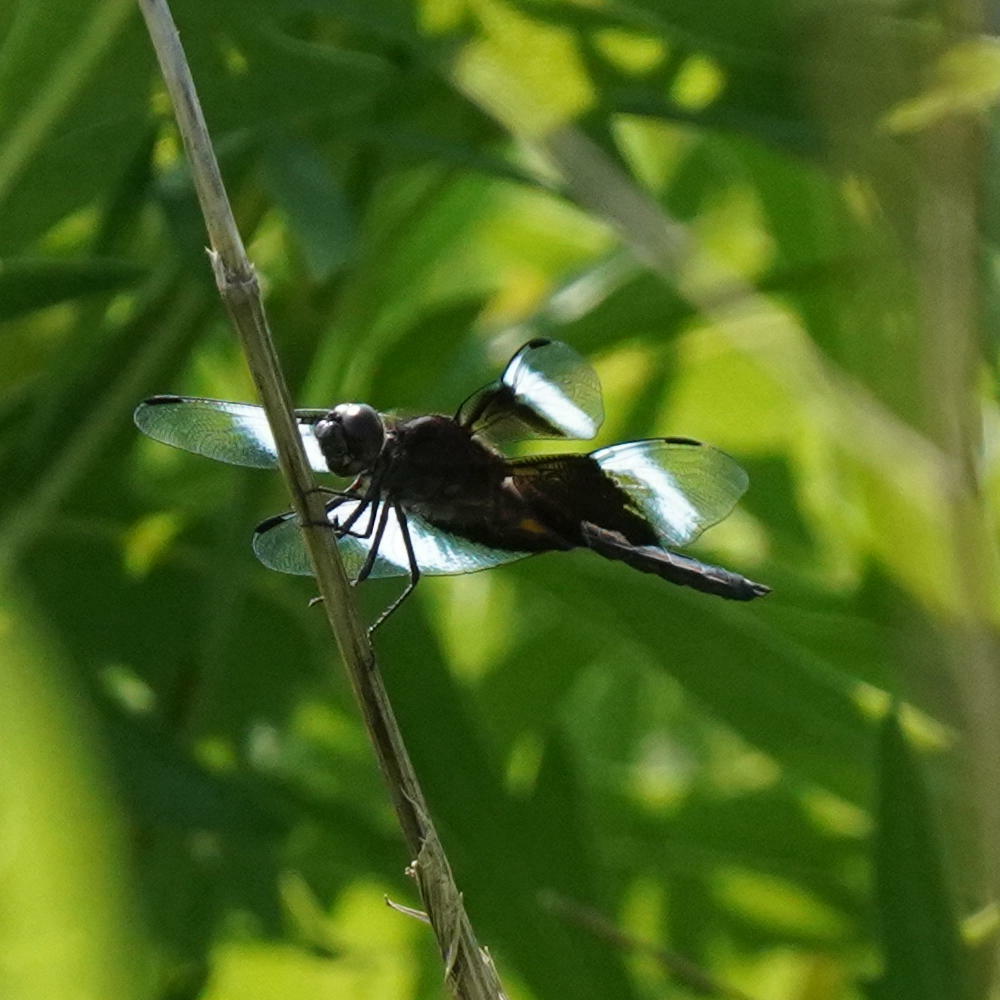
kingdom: Animalia
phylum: Arthropoda
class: Insecta
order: Odonata
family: Libellulidae
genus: Libellula
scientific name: Libellula luctuosa
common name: Widow skimmer
